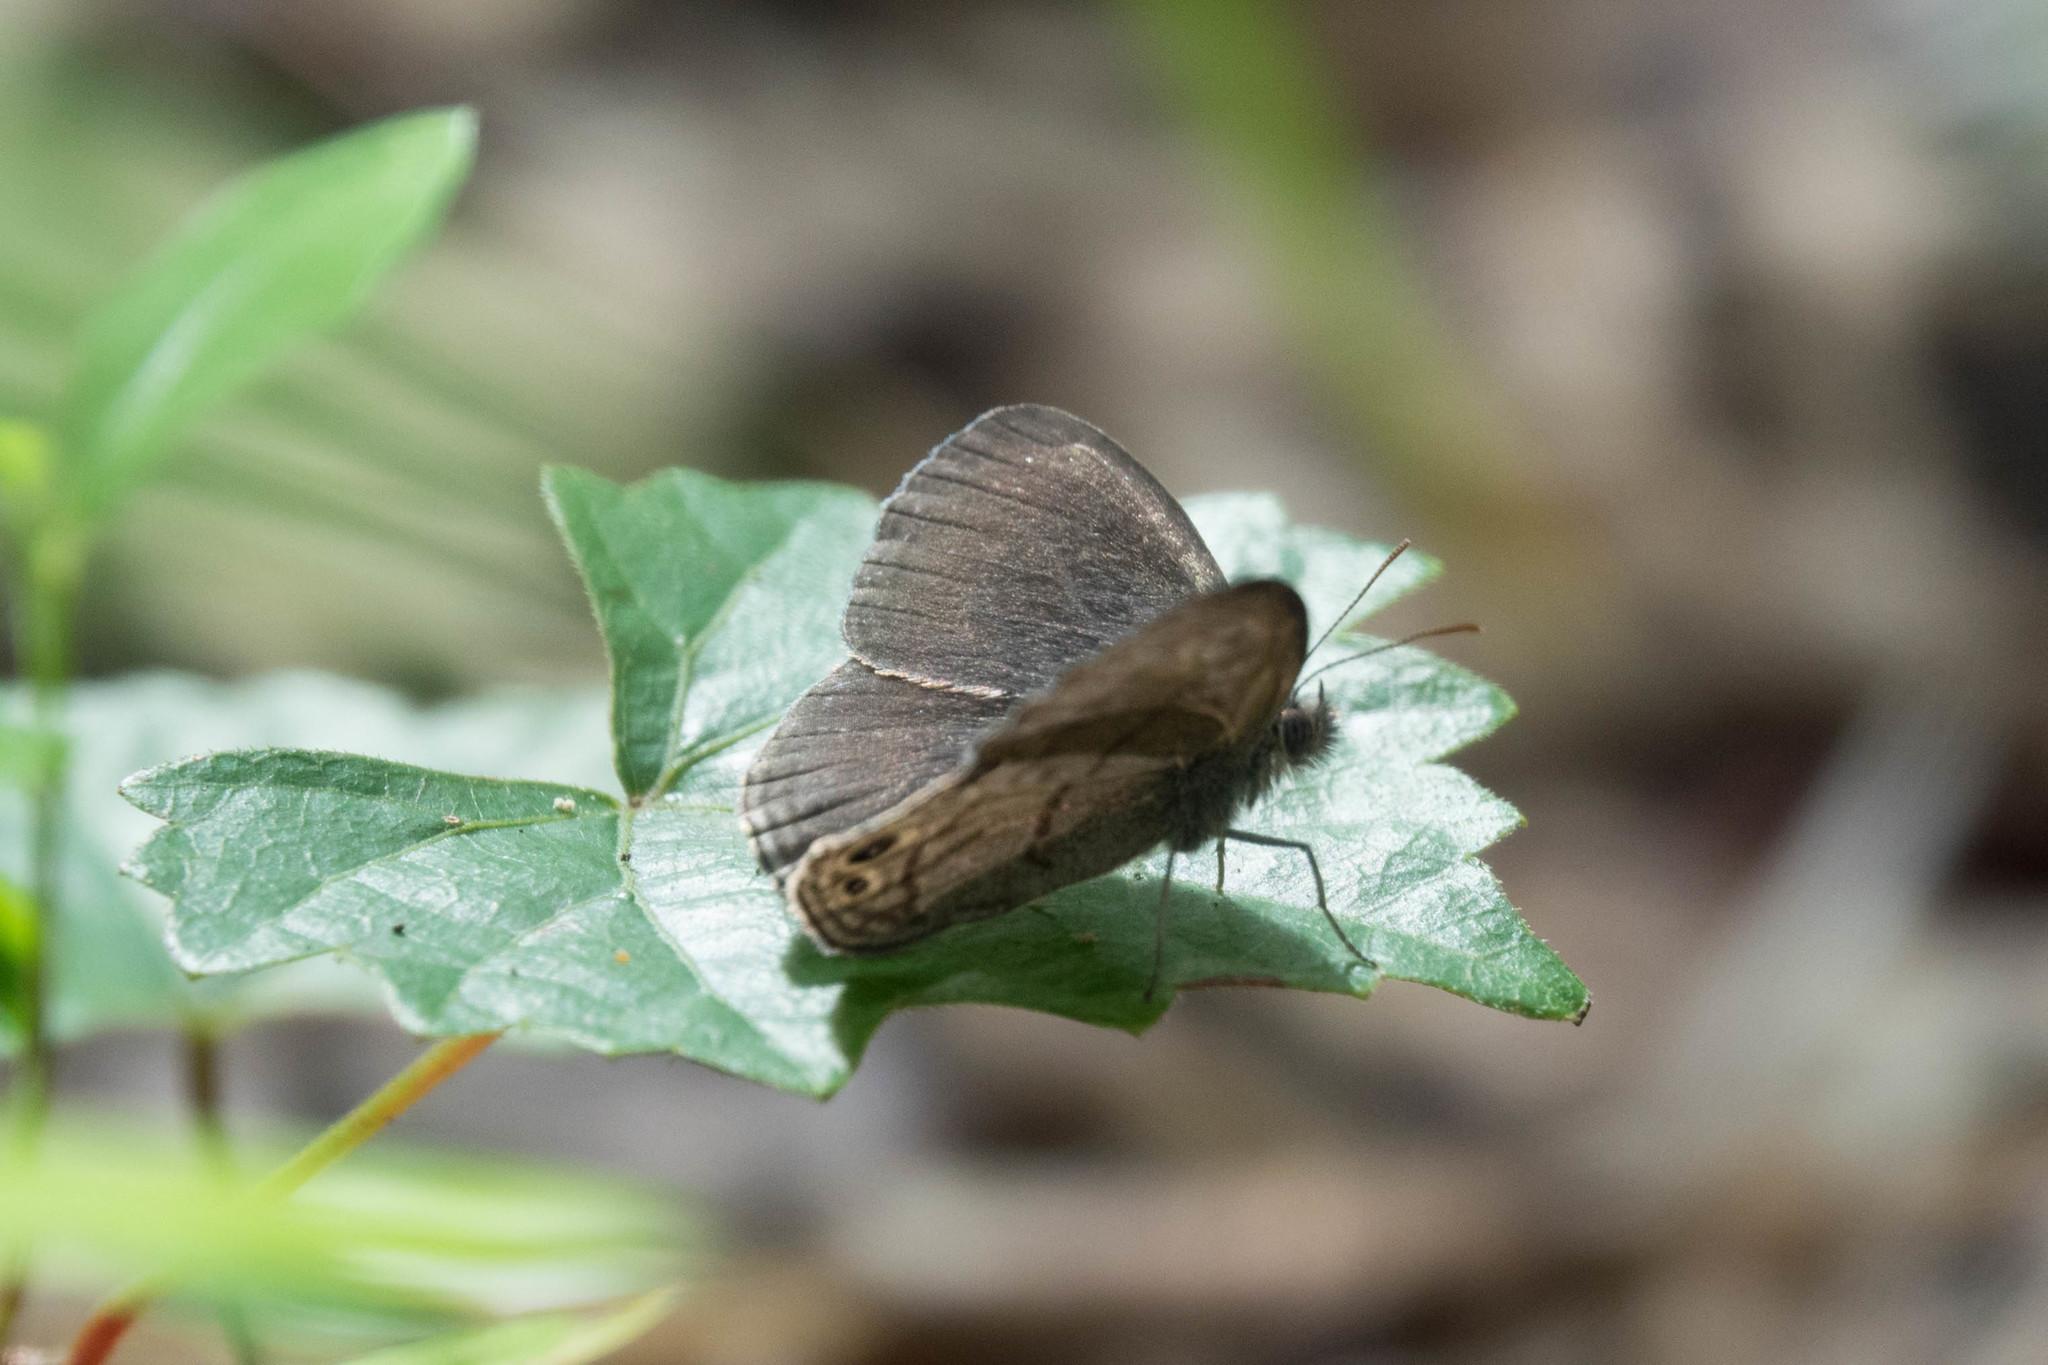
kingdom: Animalia
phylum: Arthropoda
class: Insecta
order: Lepidoptera
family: Nymphalidae
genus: Hermeuptychia
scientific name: Hermeuptychia hermes
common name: Hermes satyr
